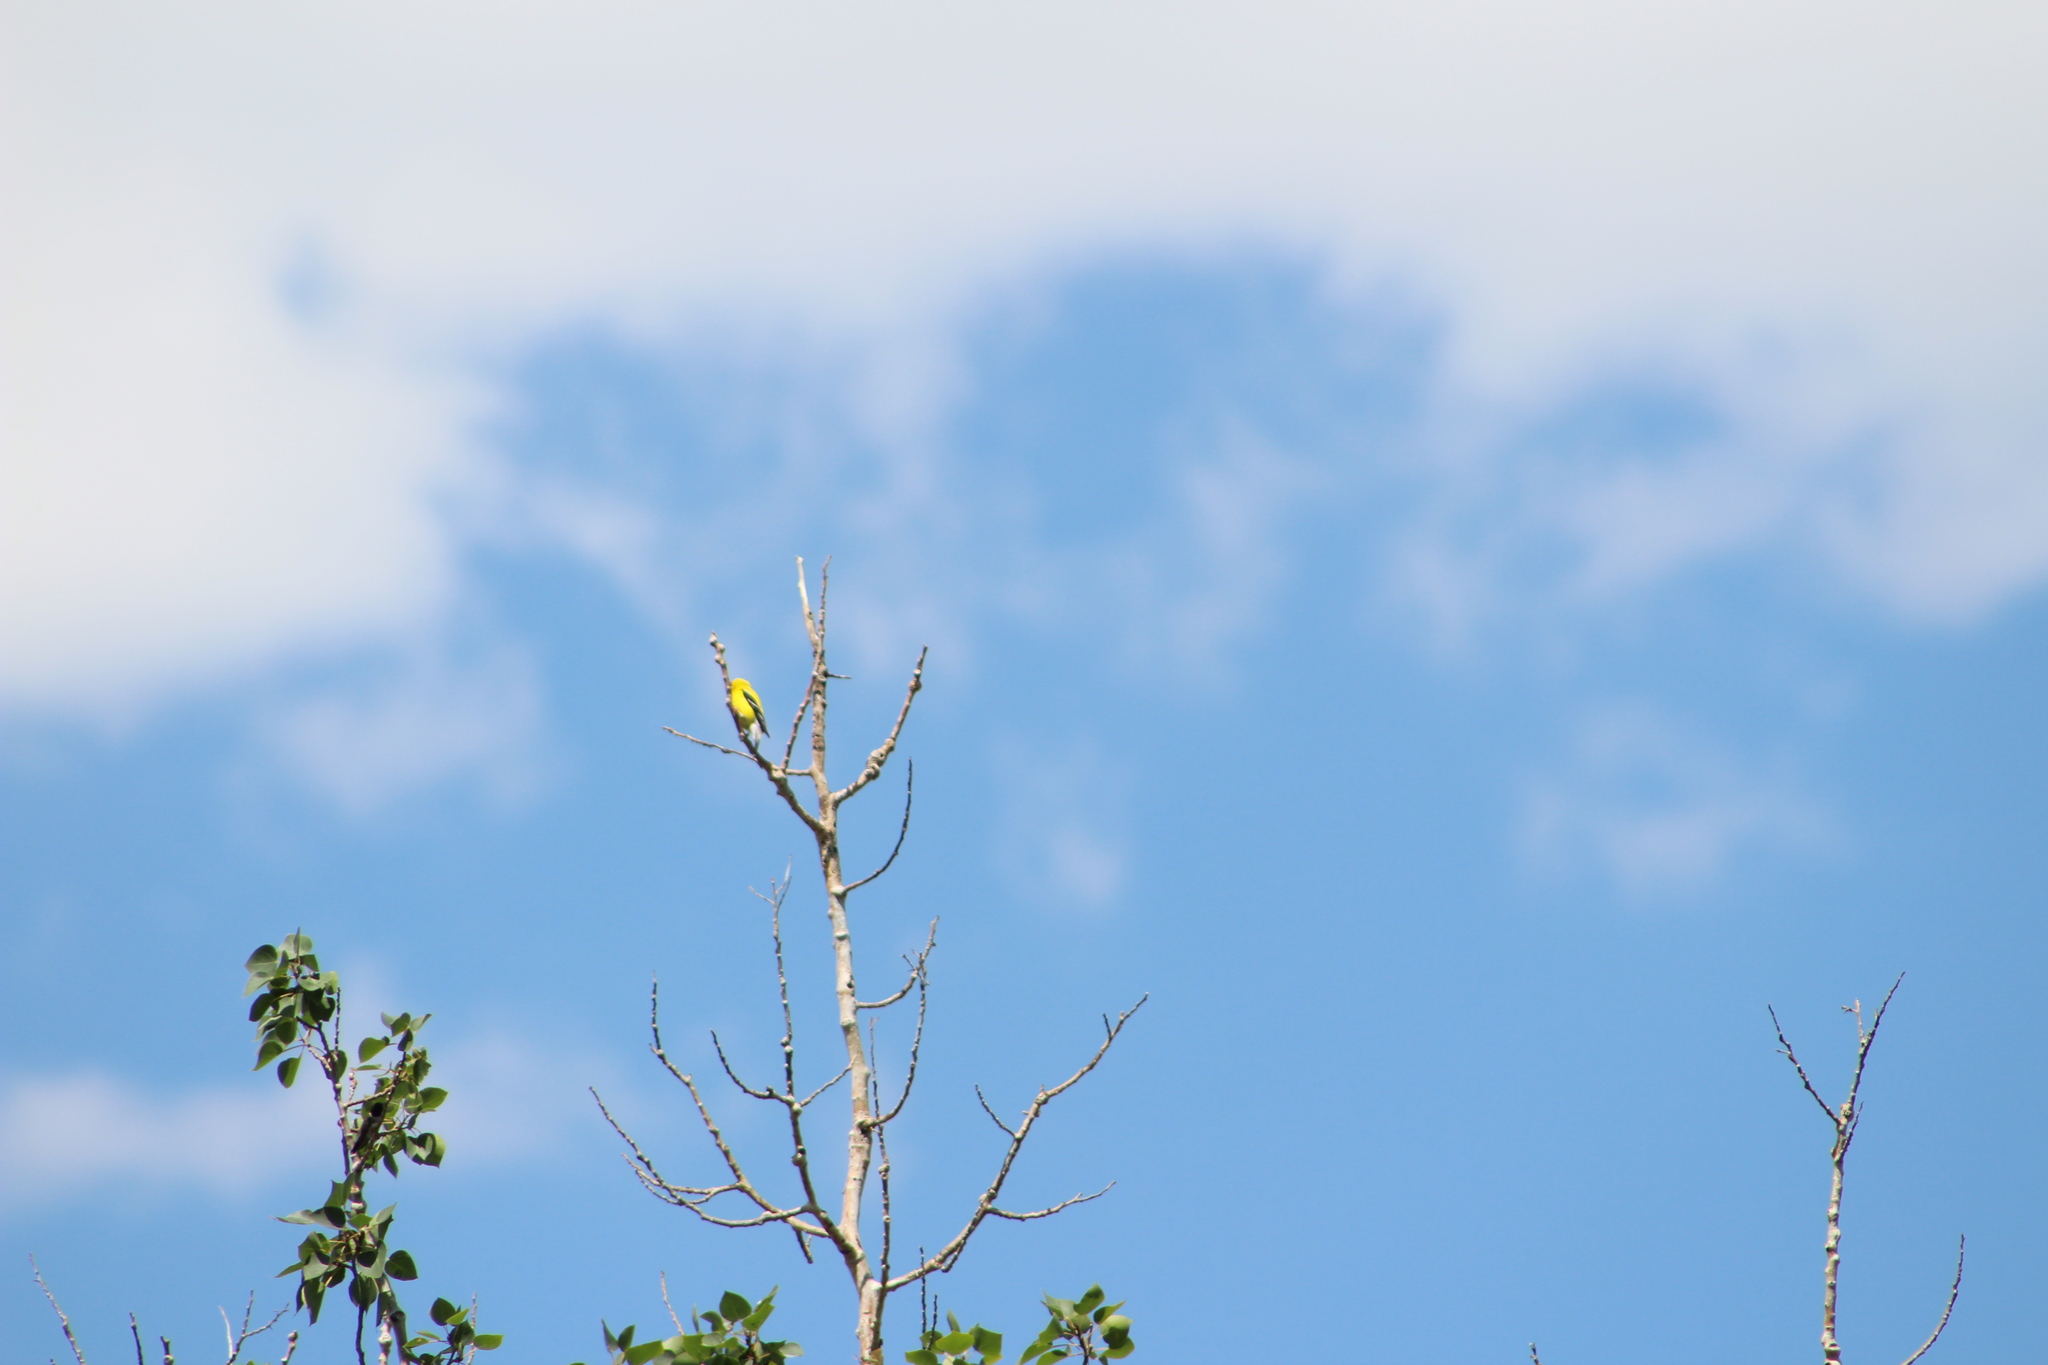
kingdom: Animalia
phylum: Chordata
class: Aves
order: Passeriformes
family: Fringillidae
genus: Spinus
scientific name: Spinus tristis
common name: American goldfinch
